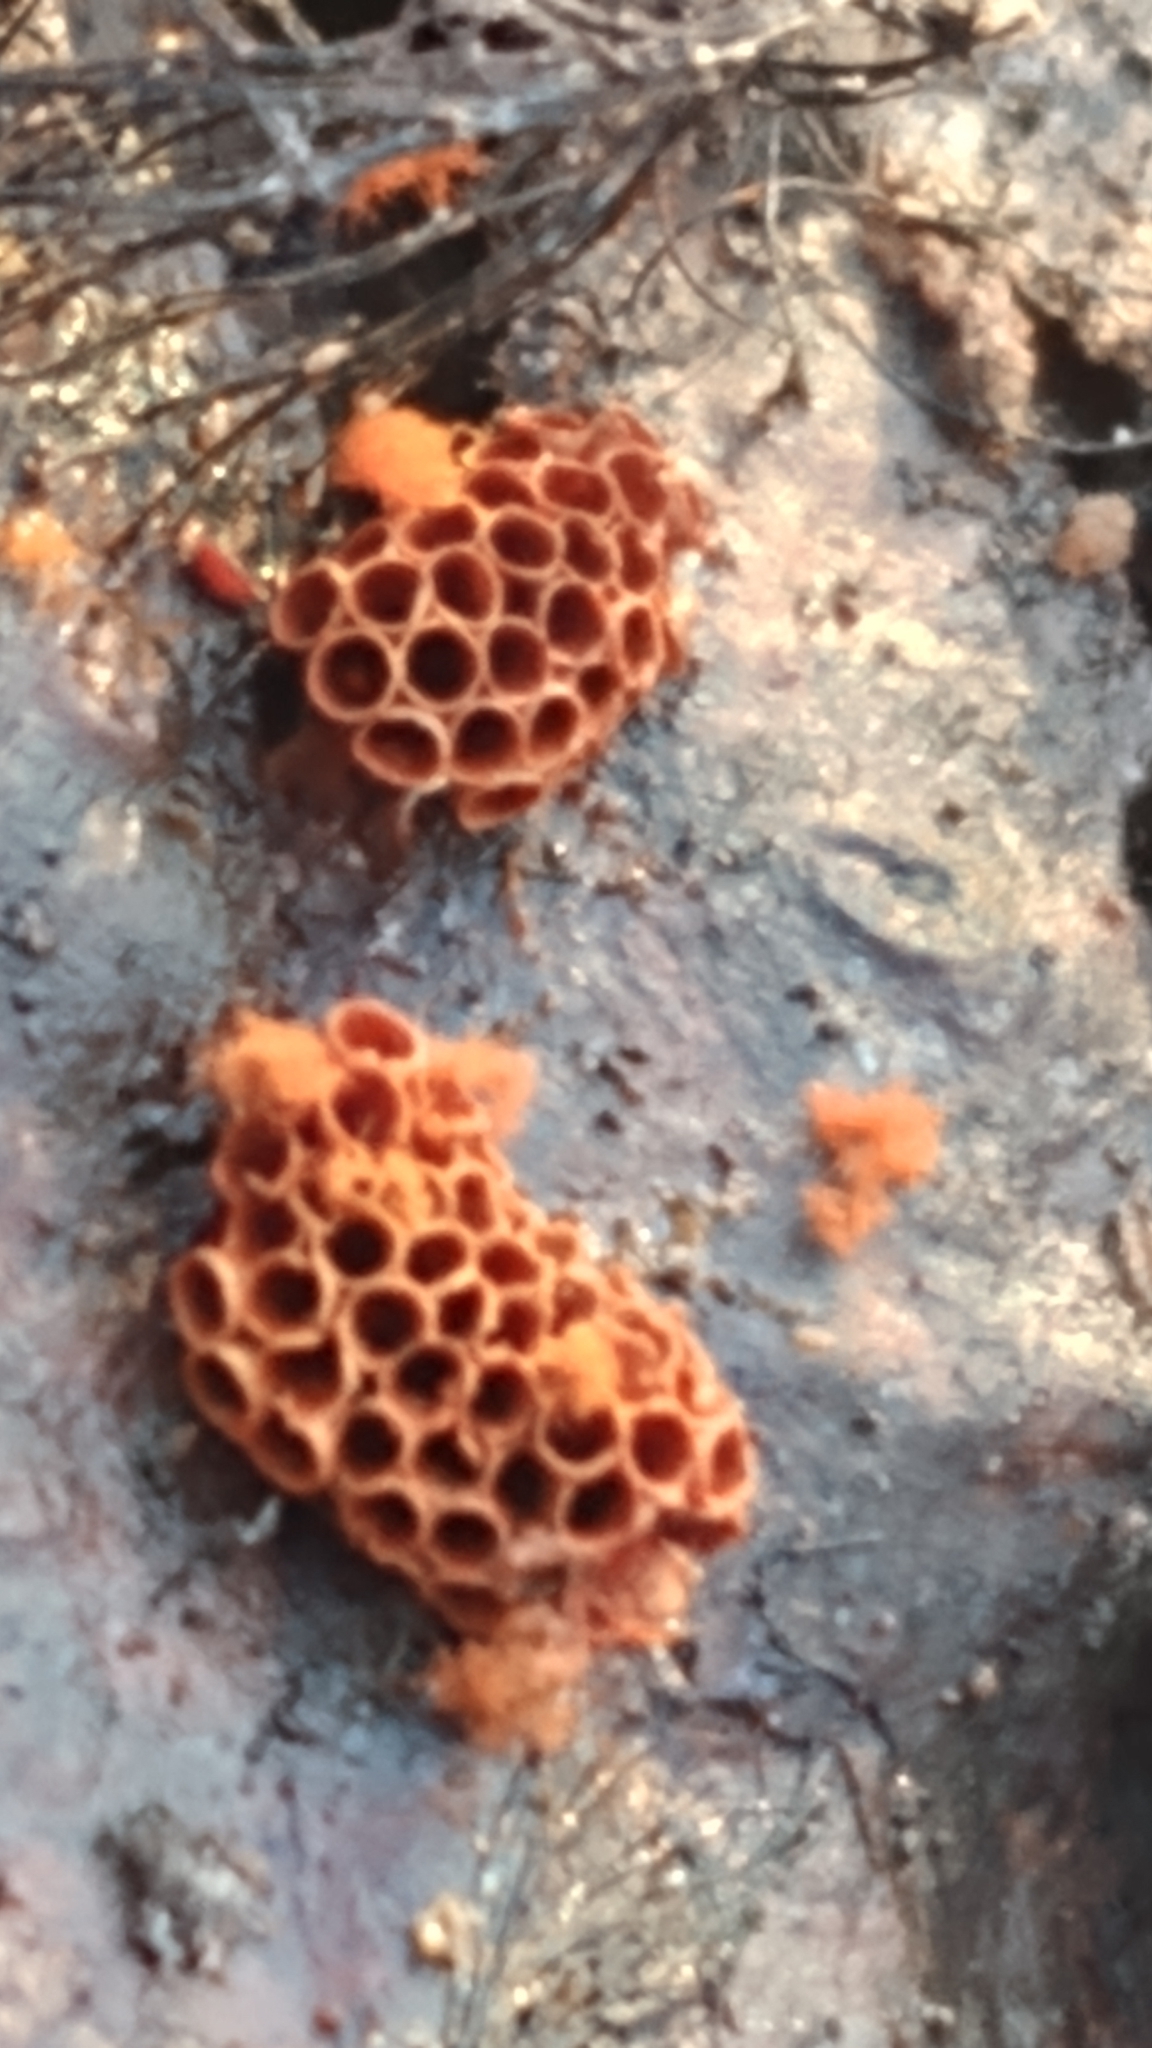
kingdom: Protozoa
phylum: Mycetozoa
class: Myxomycetes
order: Trichiales
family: Trichiaceae
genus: Metatrichia
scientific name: Metatrichia vesparia
